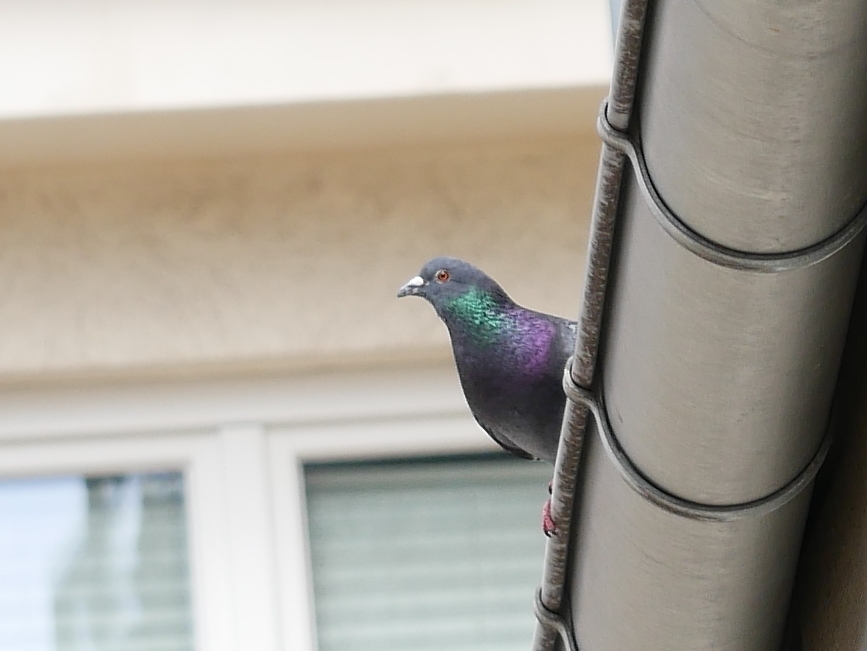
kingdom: Animalia
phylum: Chordata
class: Aves
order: Columbiformes
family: Columbidae
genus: Columba
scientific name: Columba livia
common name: Rock pigeon
